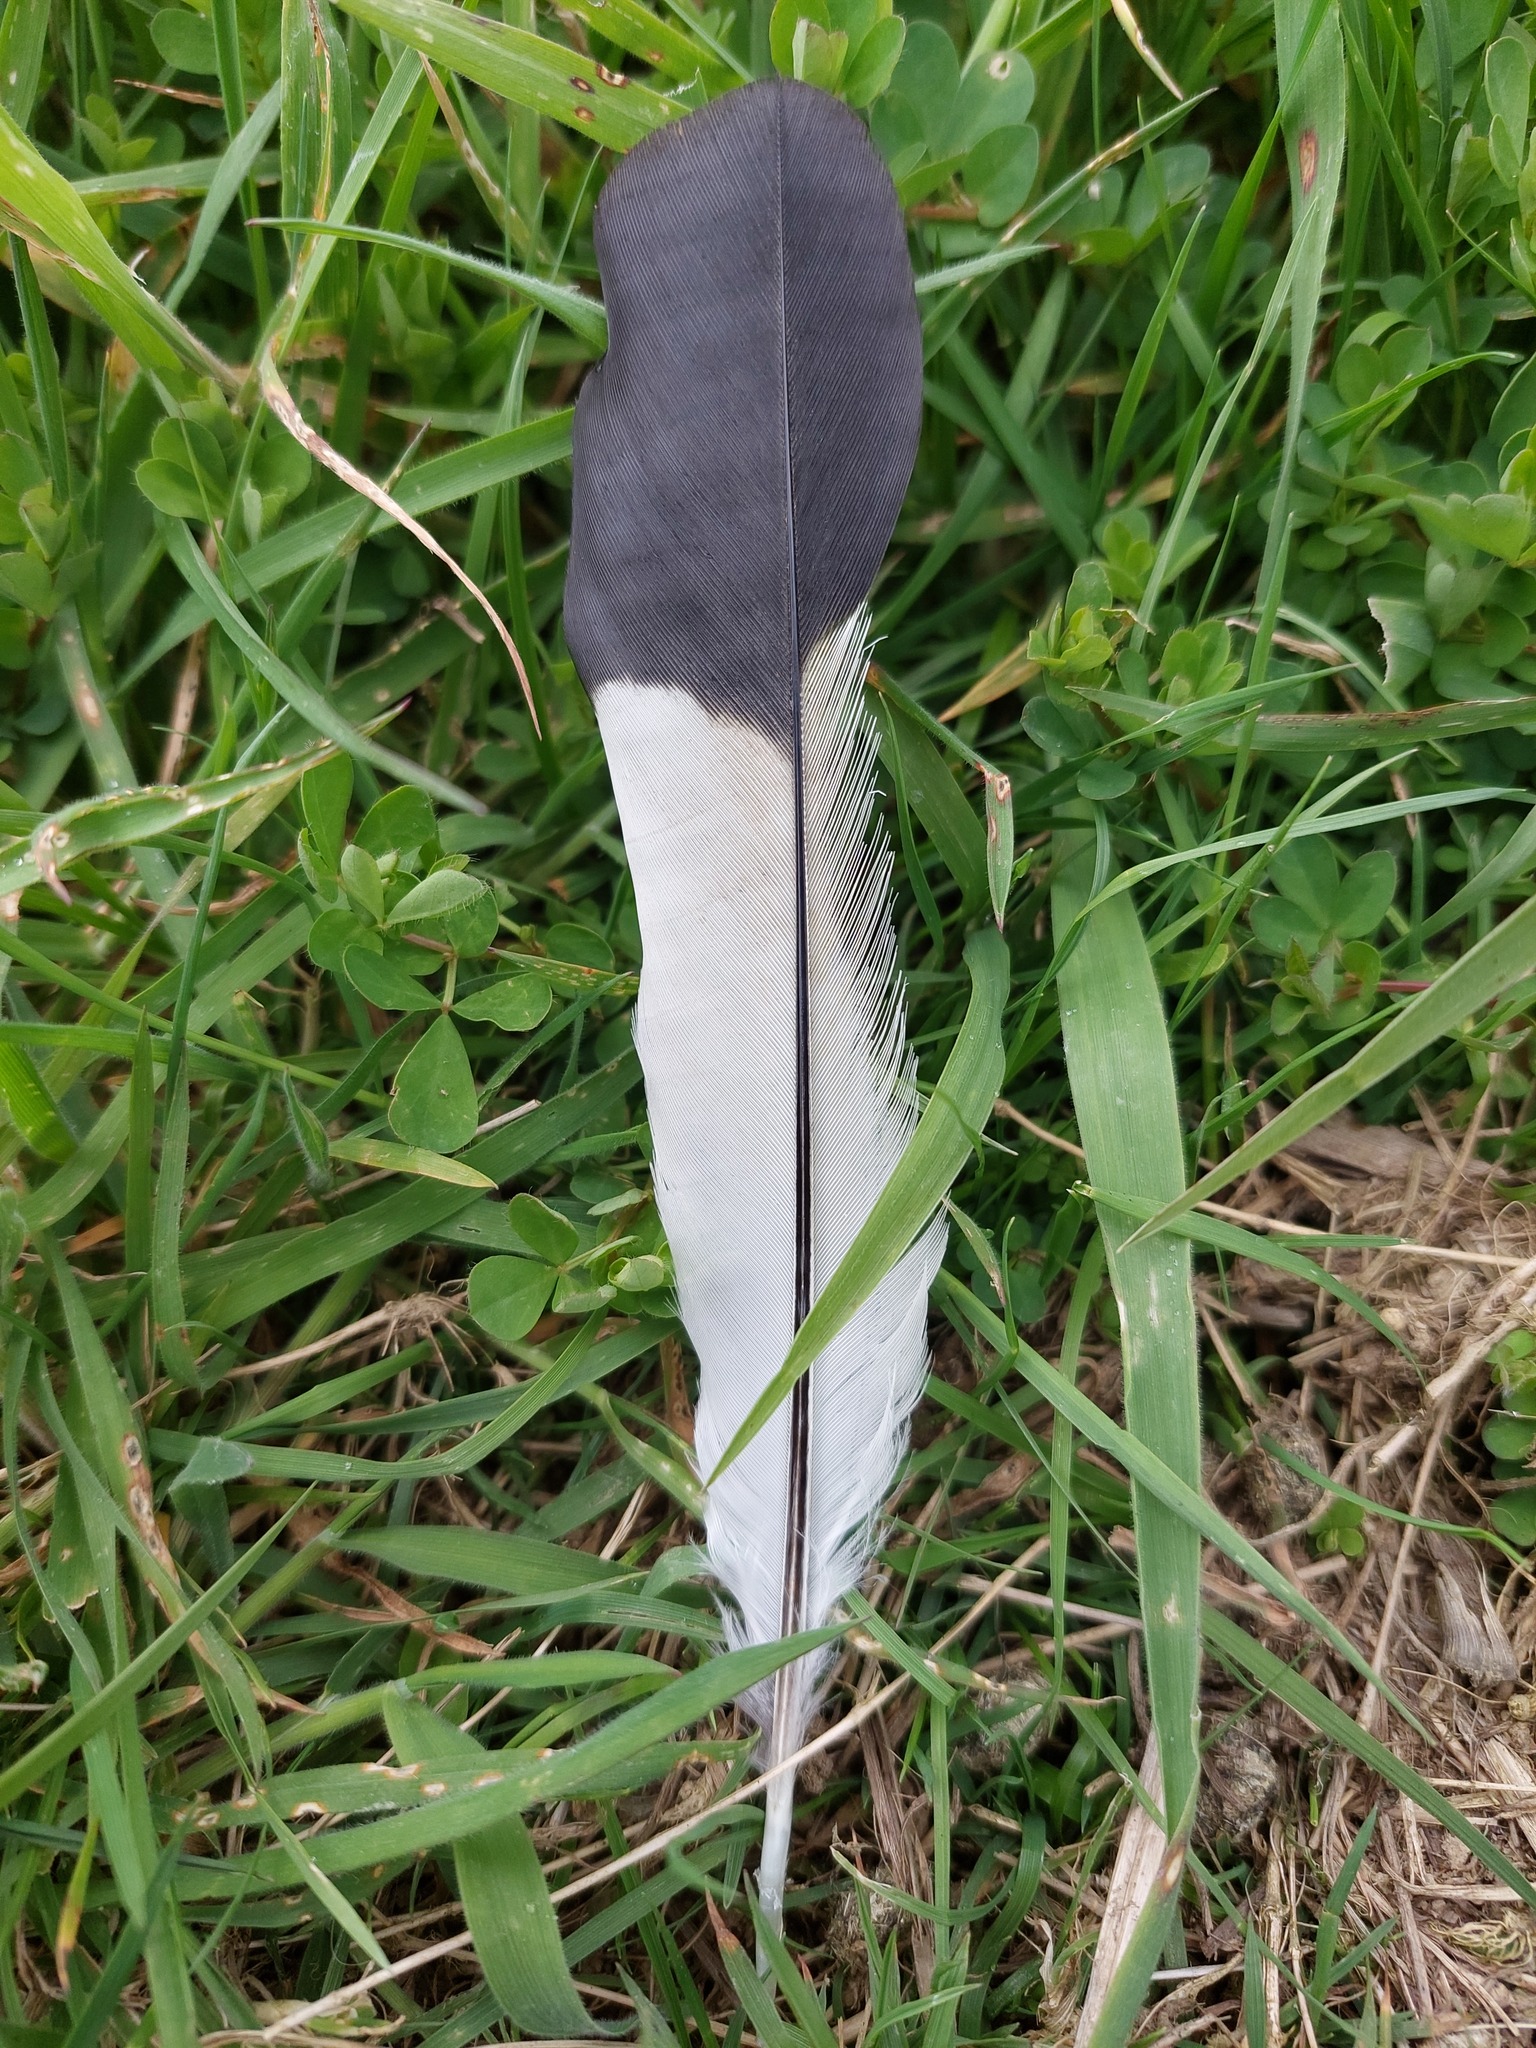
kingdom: Animalia
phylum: Chordata
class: Aves
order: Passeriformes
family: Cracticidae
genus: Gymnorhina
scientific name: Gymnorhina tibicen
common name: Australian magpie
